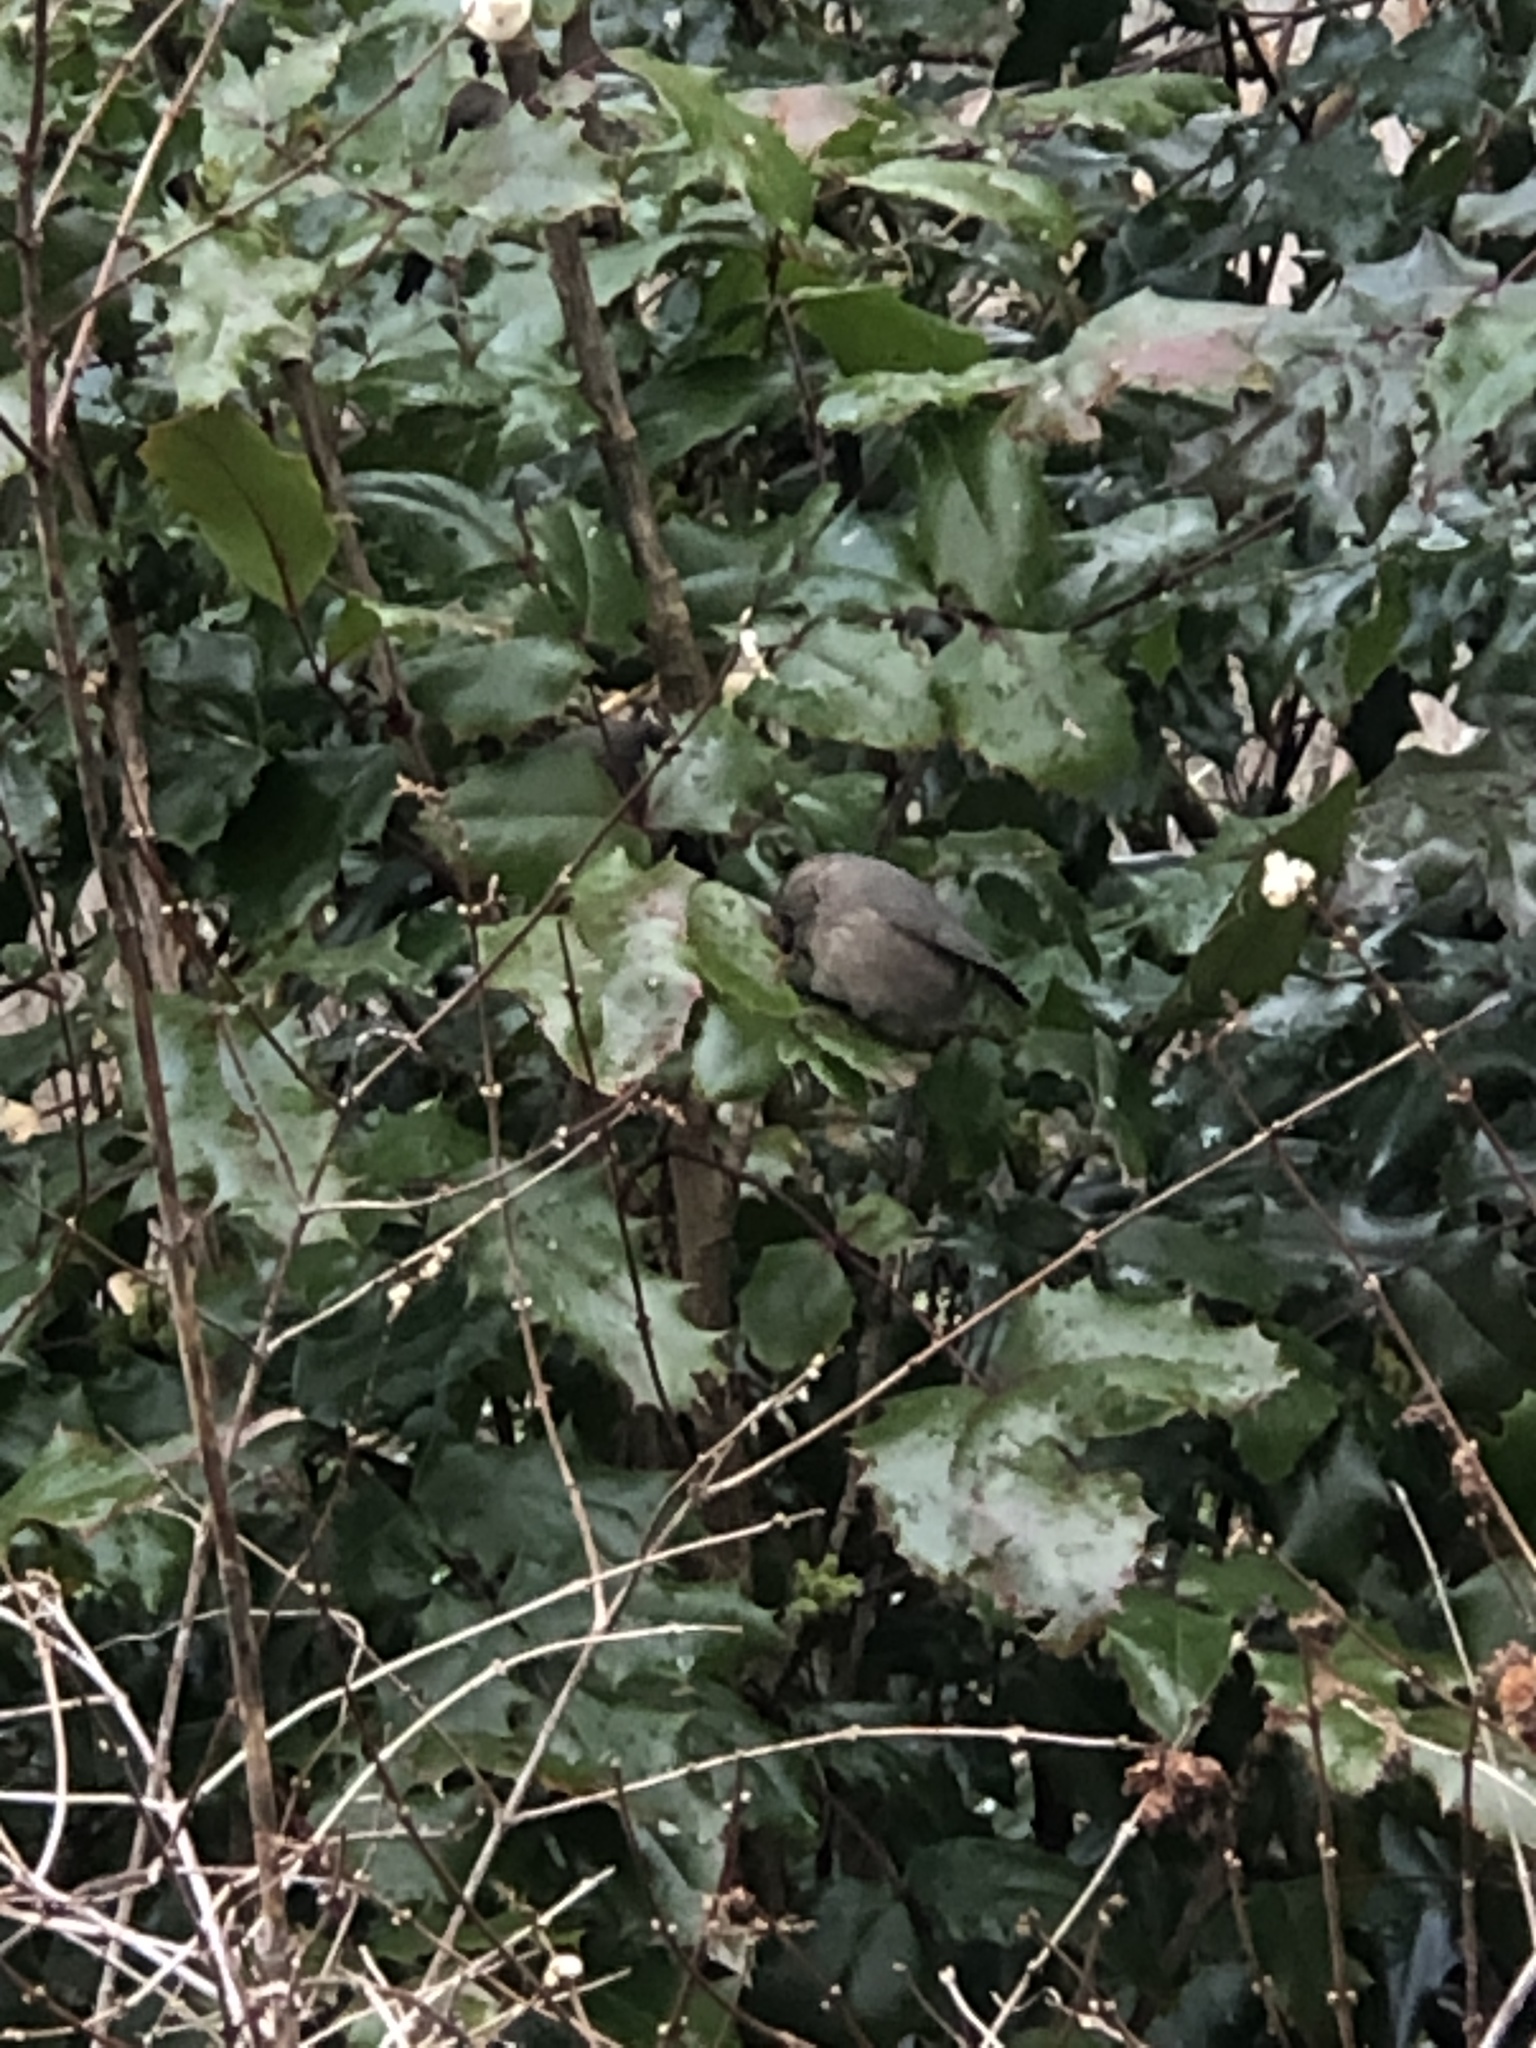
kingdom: Animalia
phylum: Chordata
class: Aves
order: Passeriformes
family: Aegithalidae
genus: Psaltriparus
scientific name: Psaltriparus minimus
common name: American bushtit
